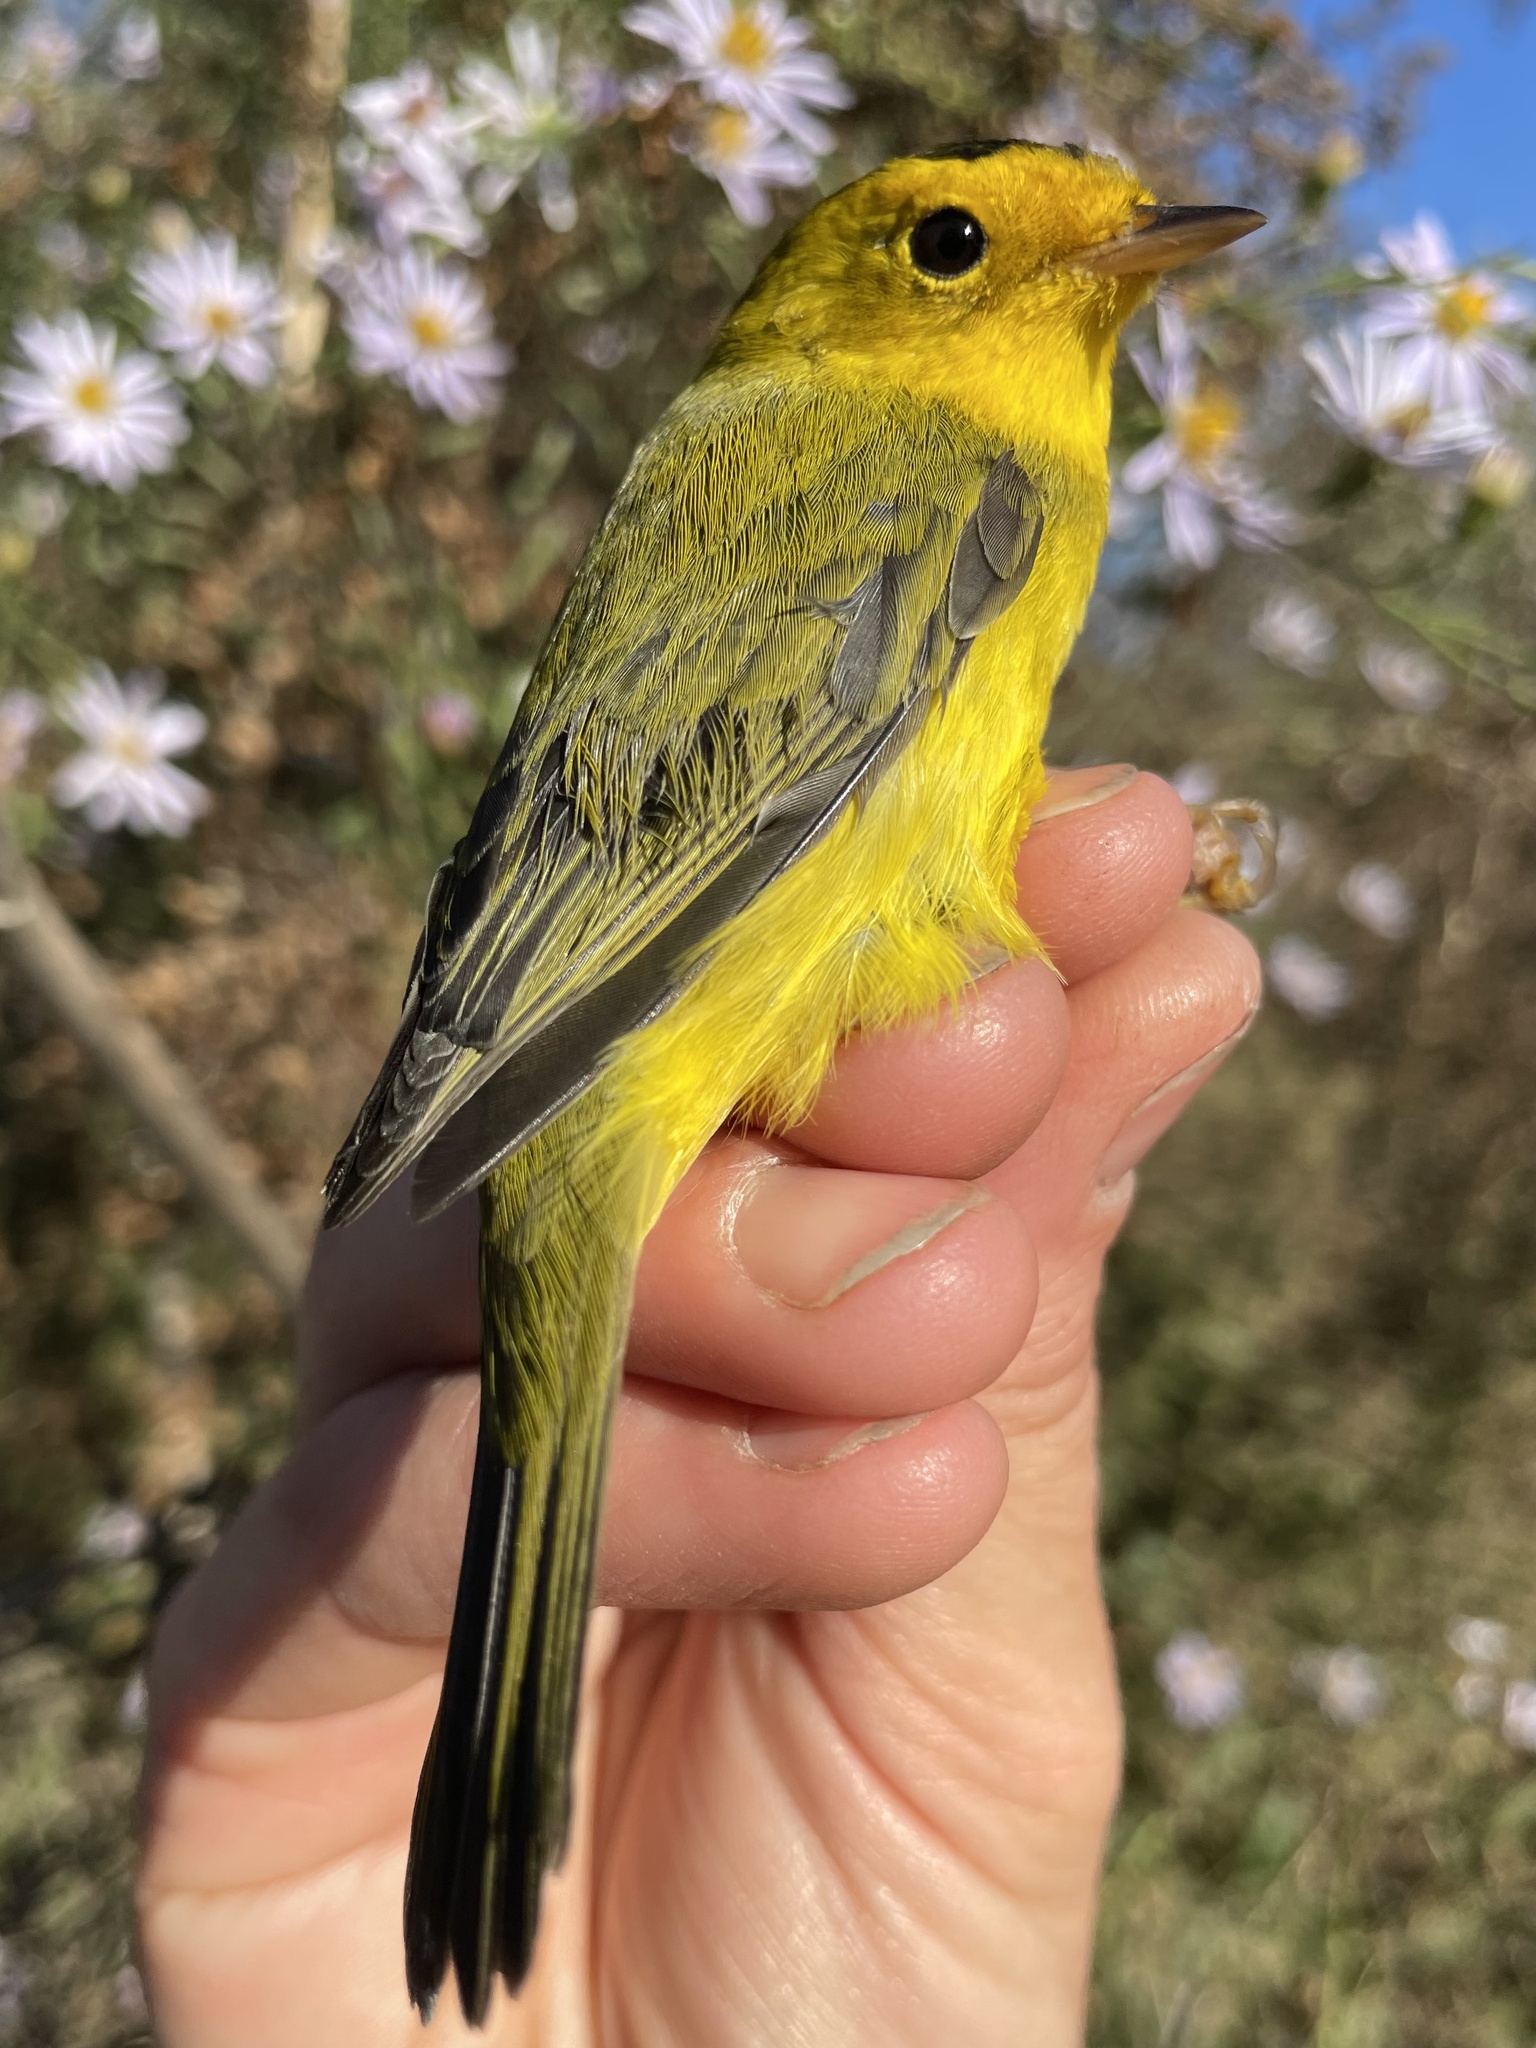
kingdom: Animalia
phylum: Chordata
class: Aves
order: Passeriformes
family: Parulidae
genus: Cardellina
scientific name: Cardellina pusilla
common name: Wilson's warbler
